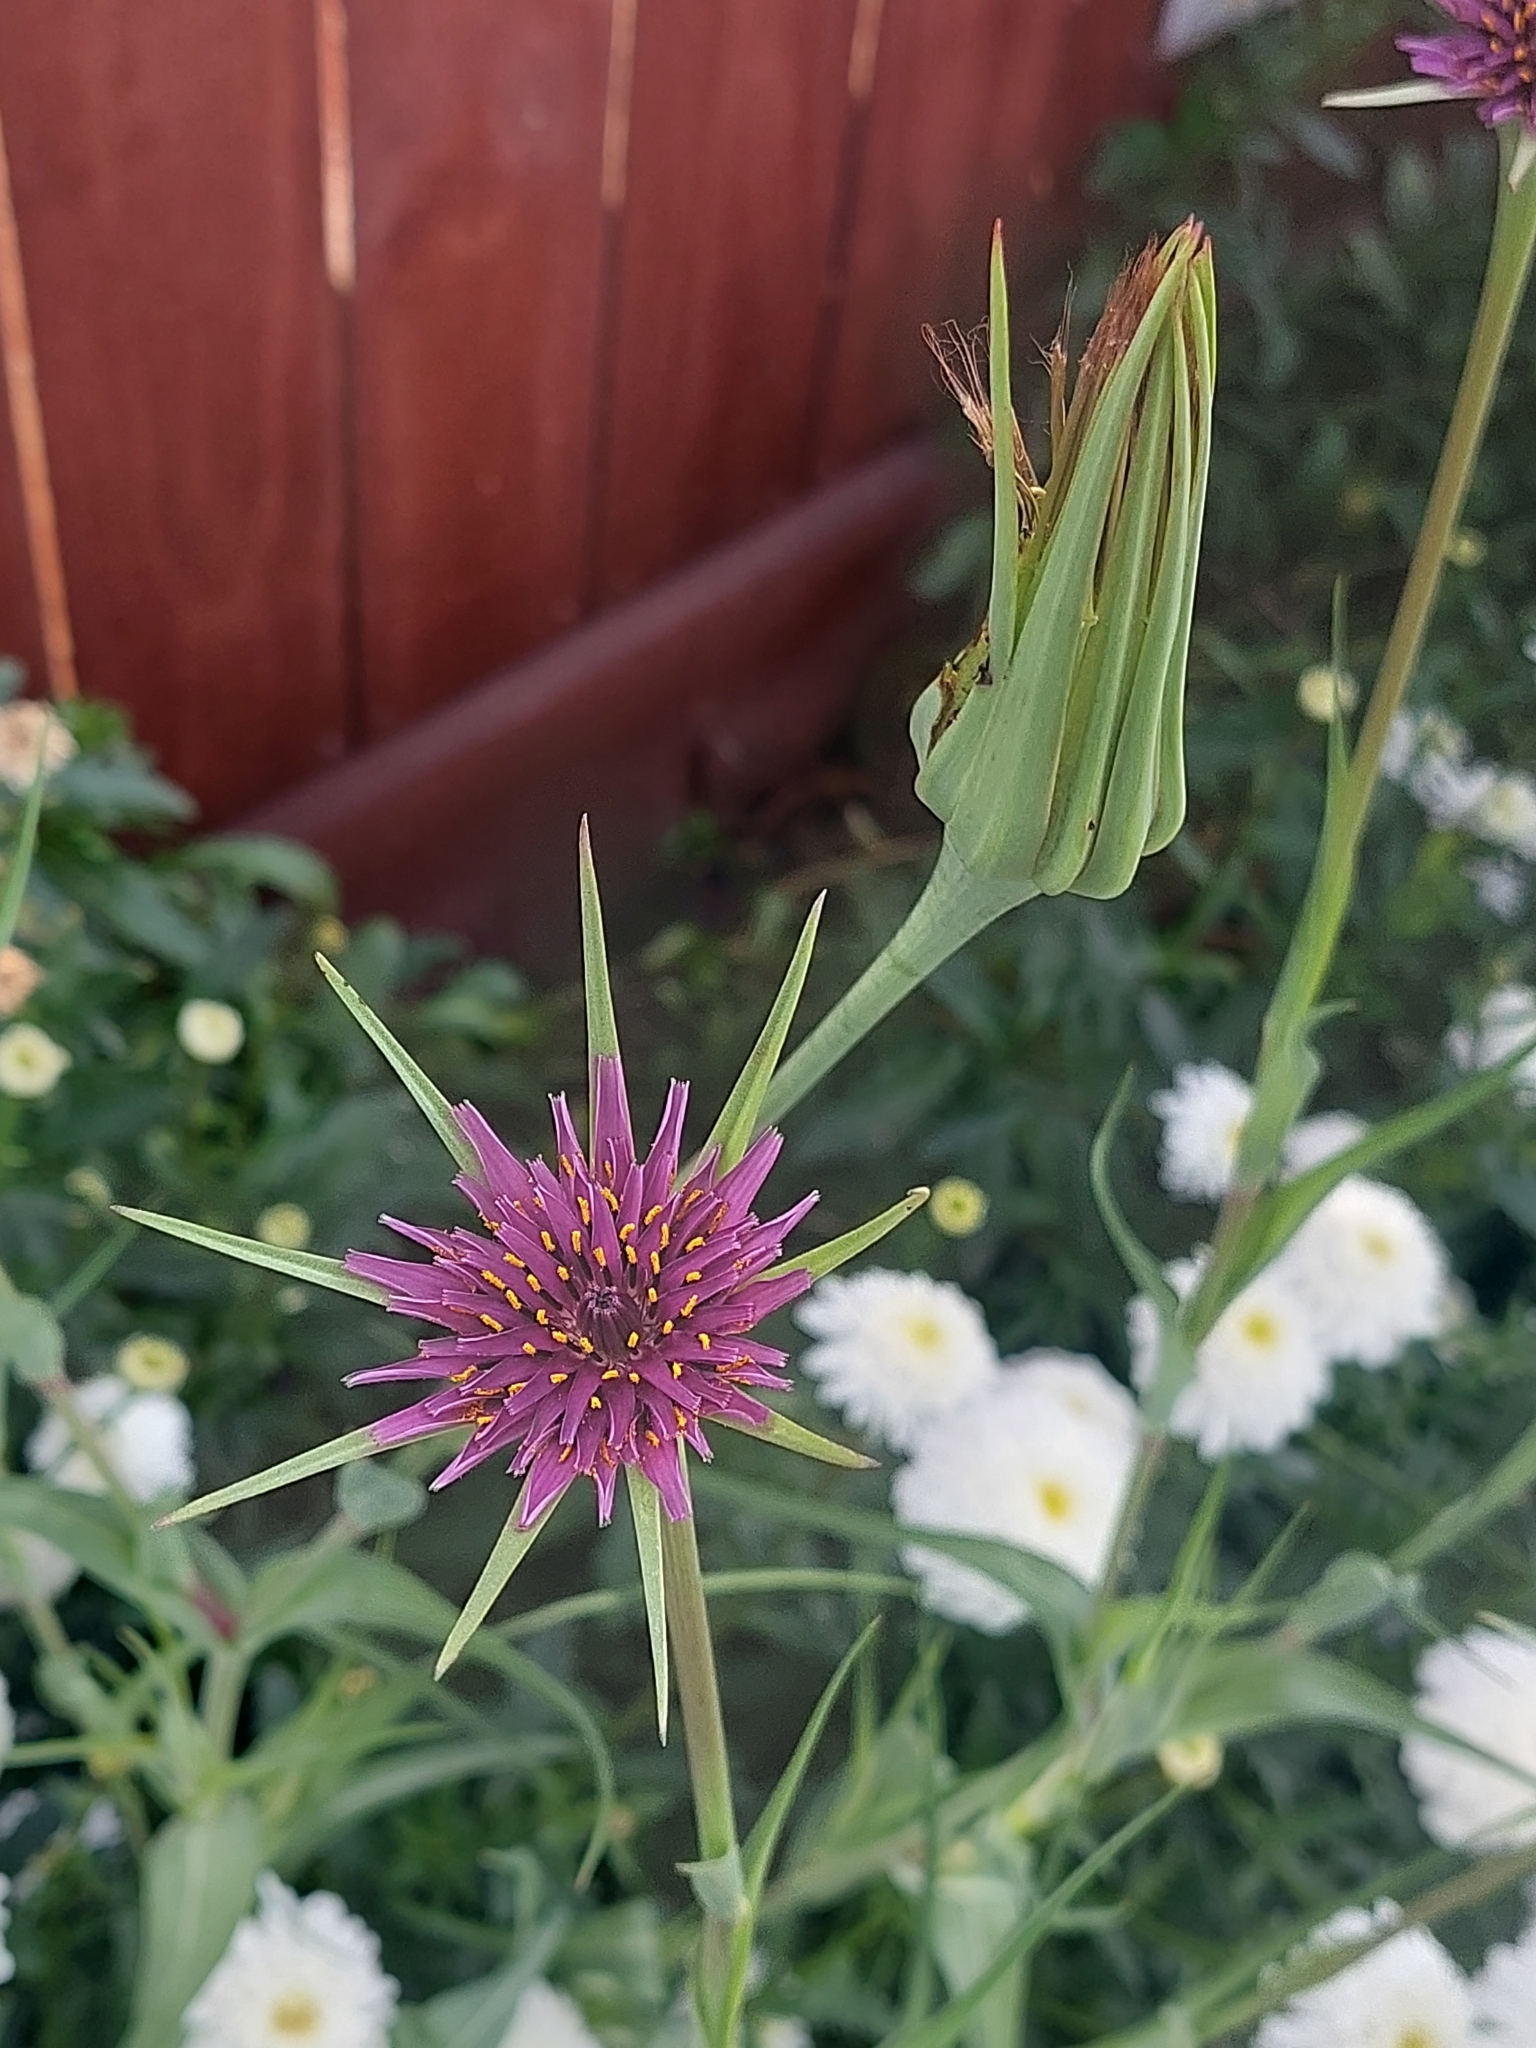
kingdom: Plantae
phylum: Tracheophyta
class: Magnoliopsida
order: Asterales
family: Asteraceae
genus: Tragopogon
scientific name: Tragopogon porrifolius
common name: Salsify
